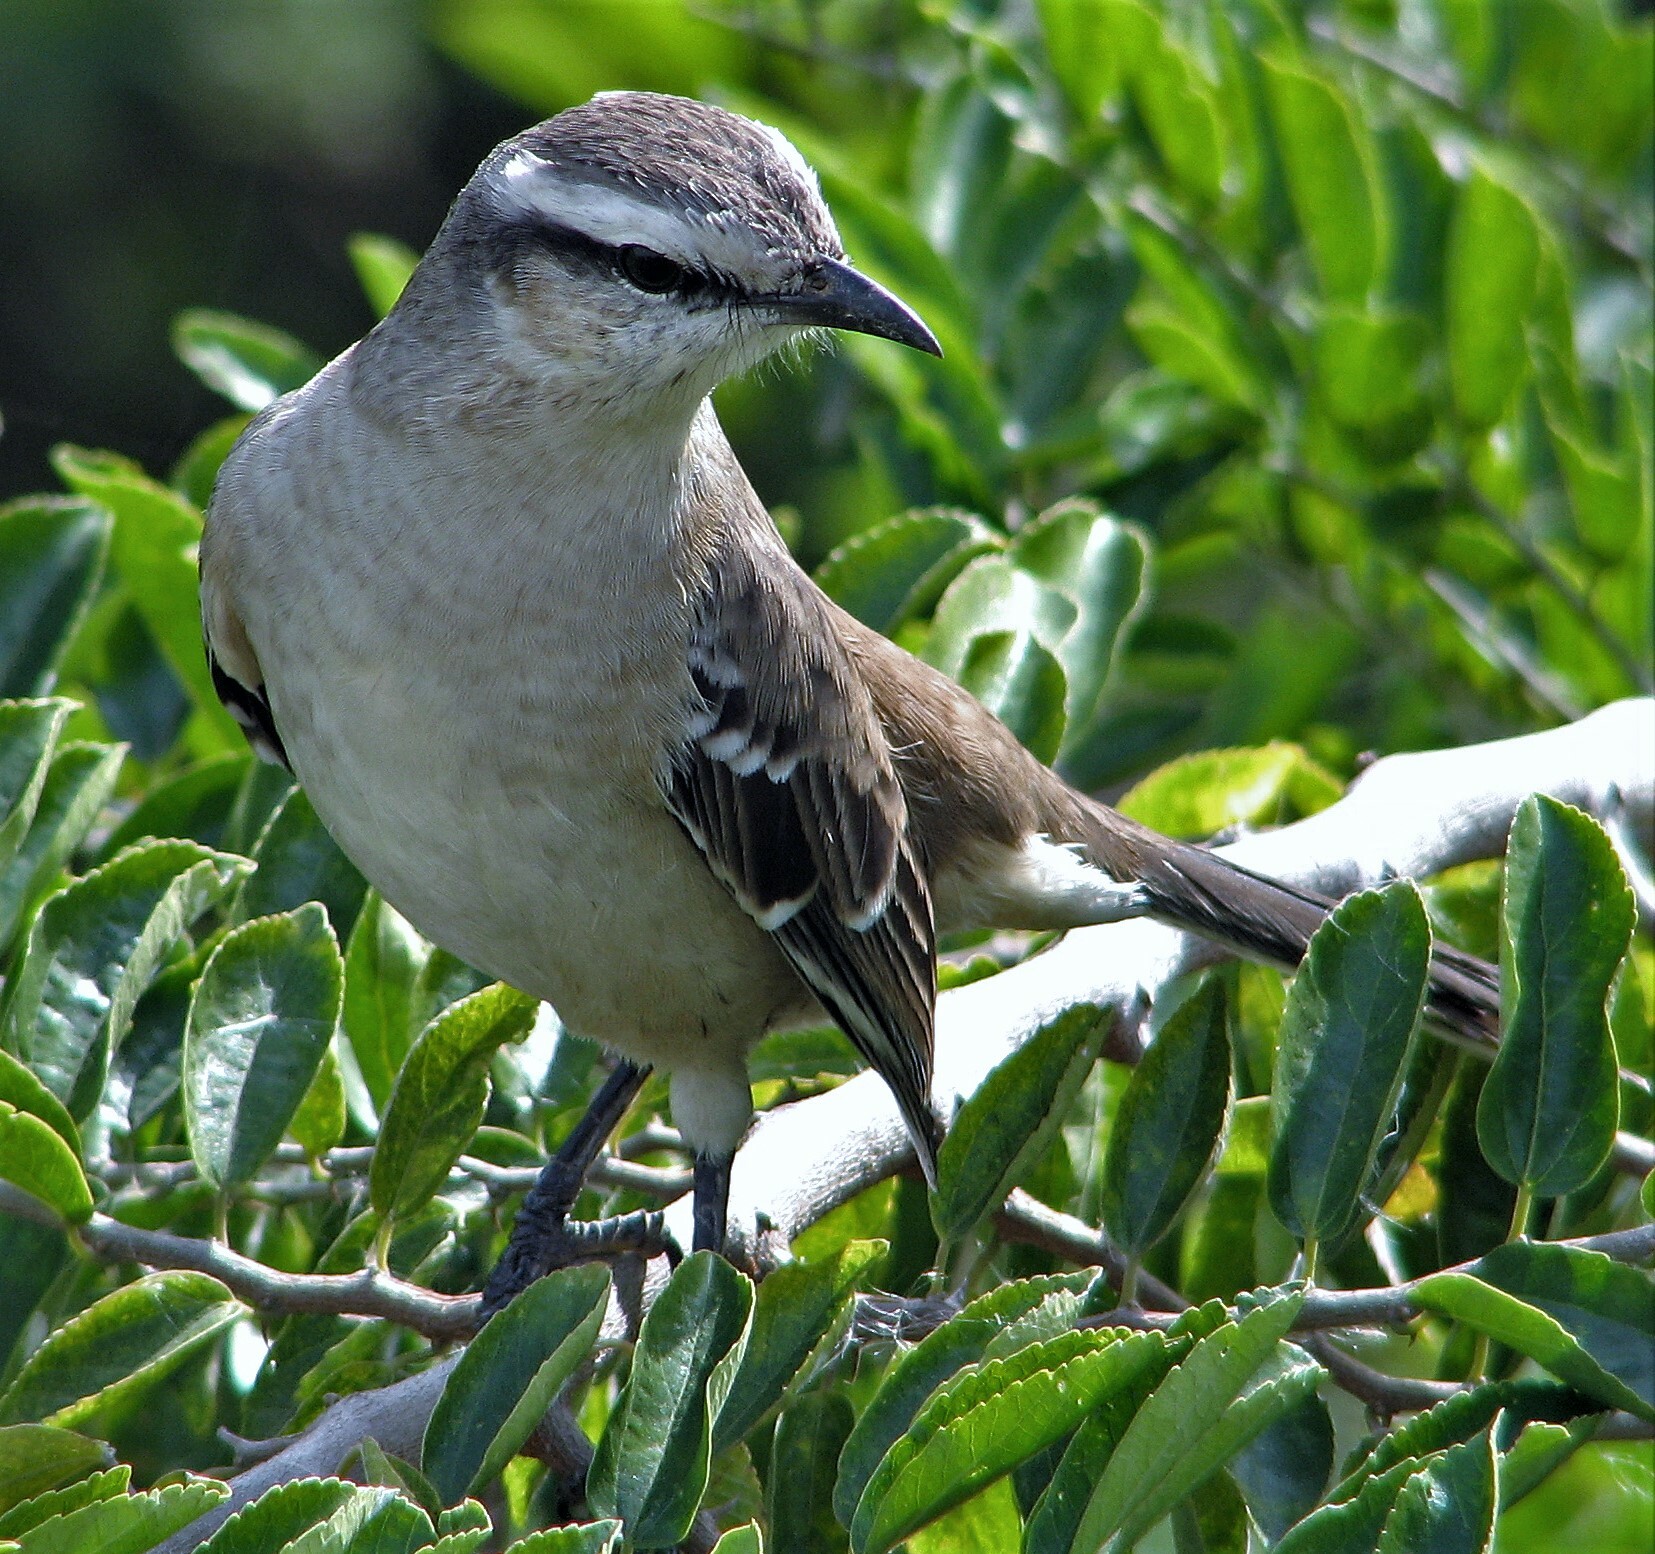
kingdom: Animalia
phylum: Chordata
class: Aves
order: Passeriformes
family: Mimidae
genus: Mimus
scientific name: Mimus saturninus
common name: Chalk-browed mockingbird
